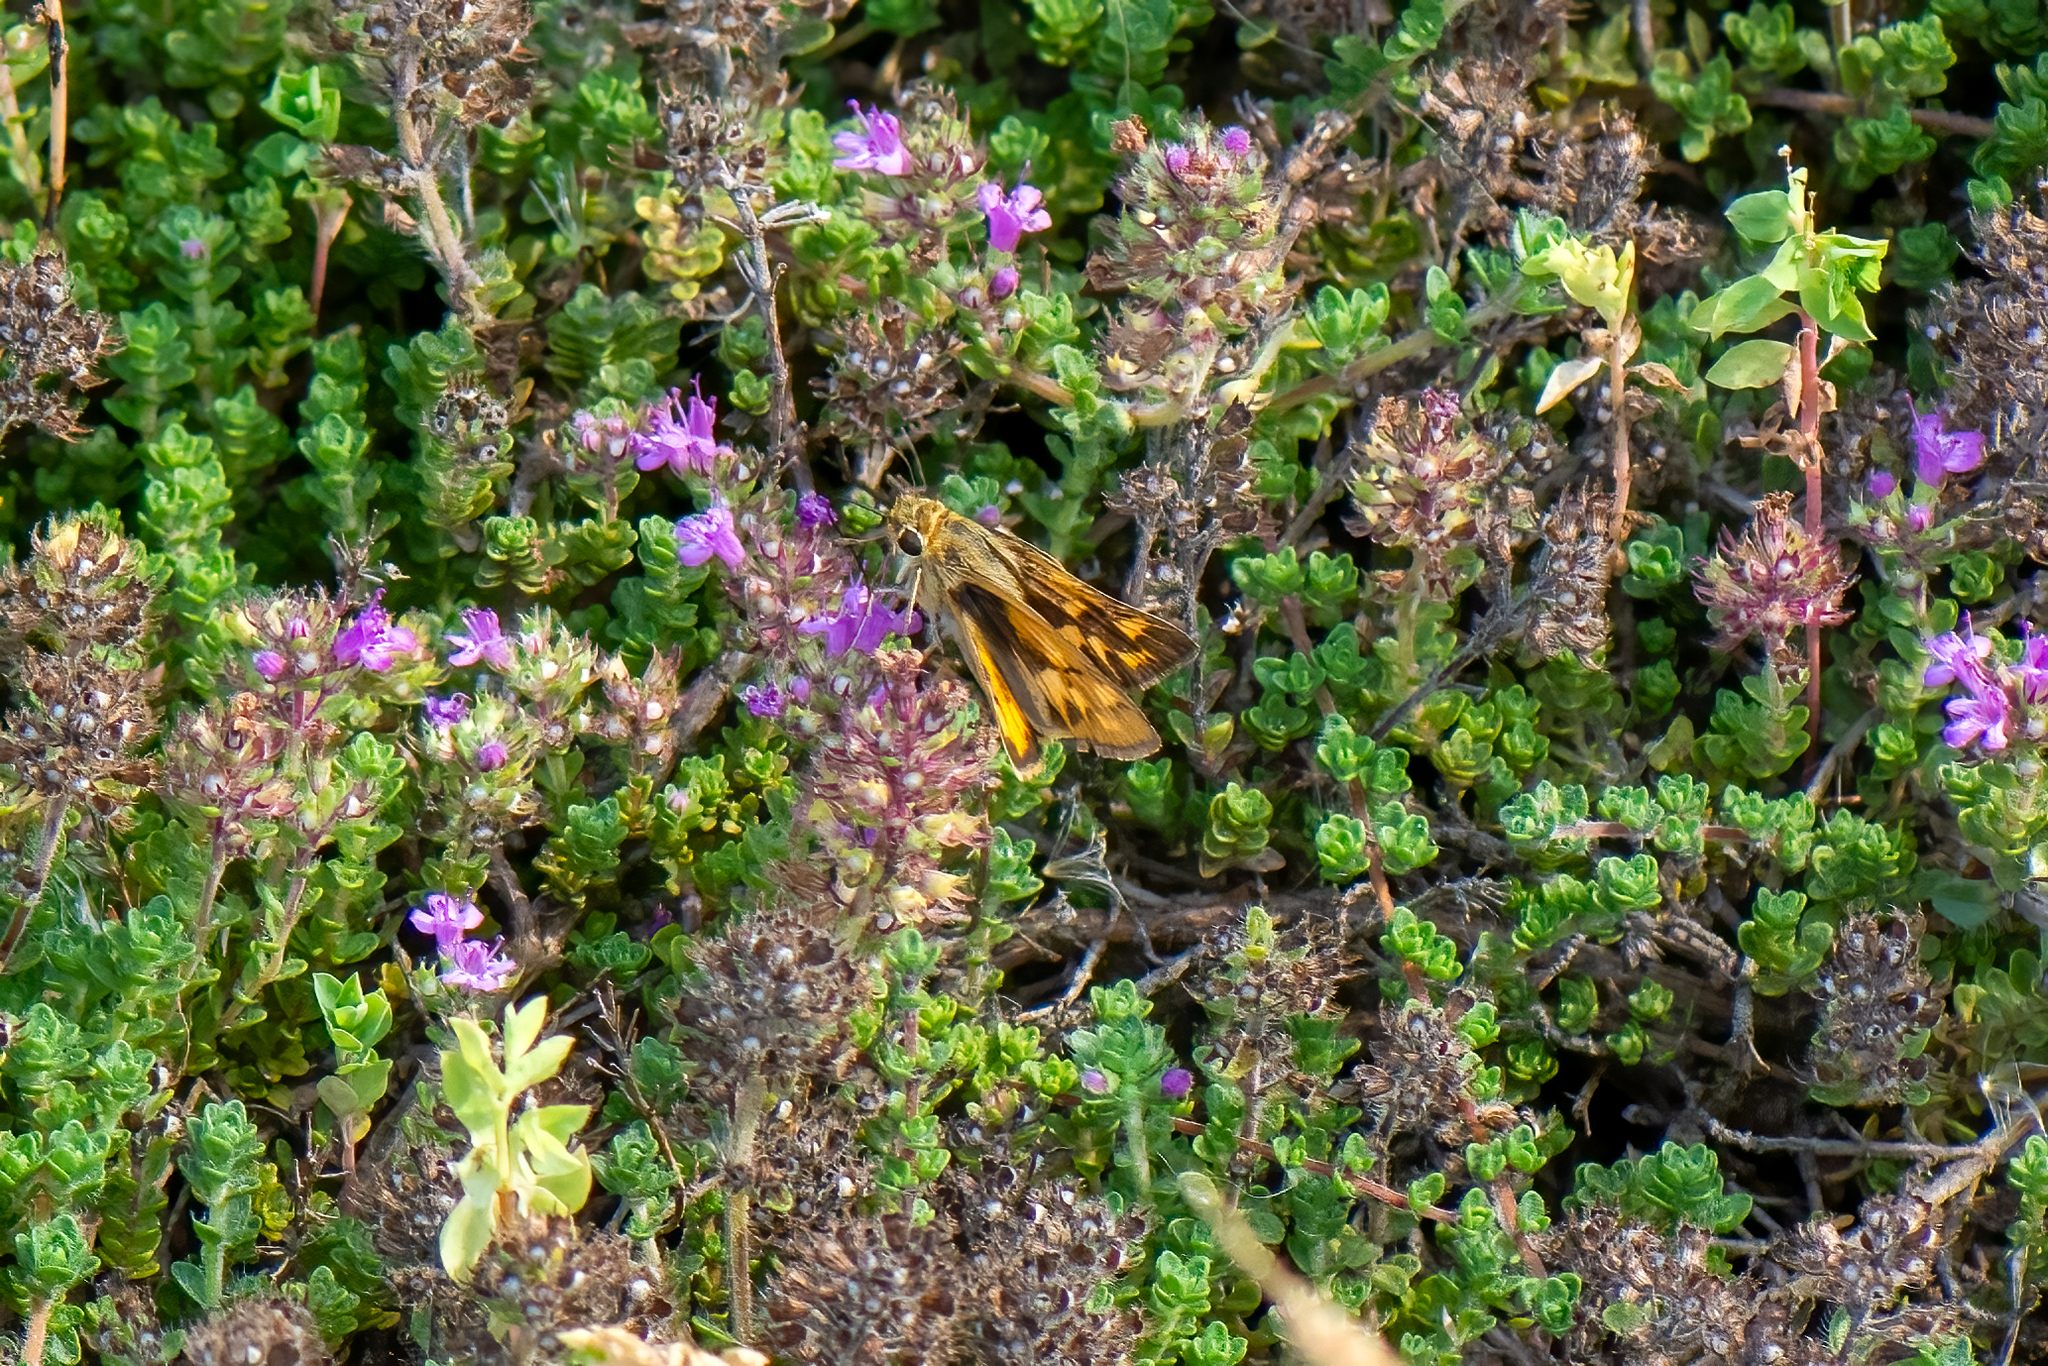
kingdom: Animalia
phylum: Arthropoda
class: Insecta
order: Lepidoptera
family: Hesperiidae
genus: Hylephila
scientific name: Hylephila phyleus
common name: Fiery skipper
